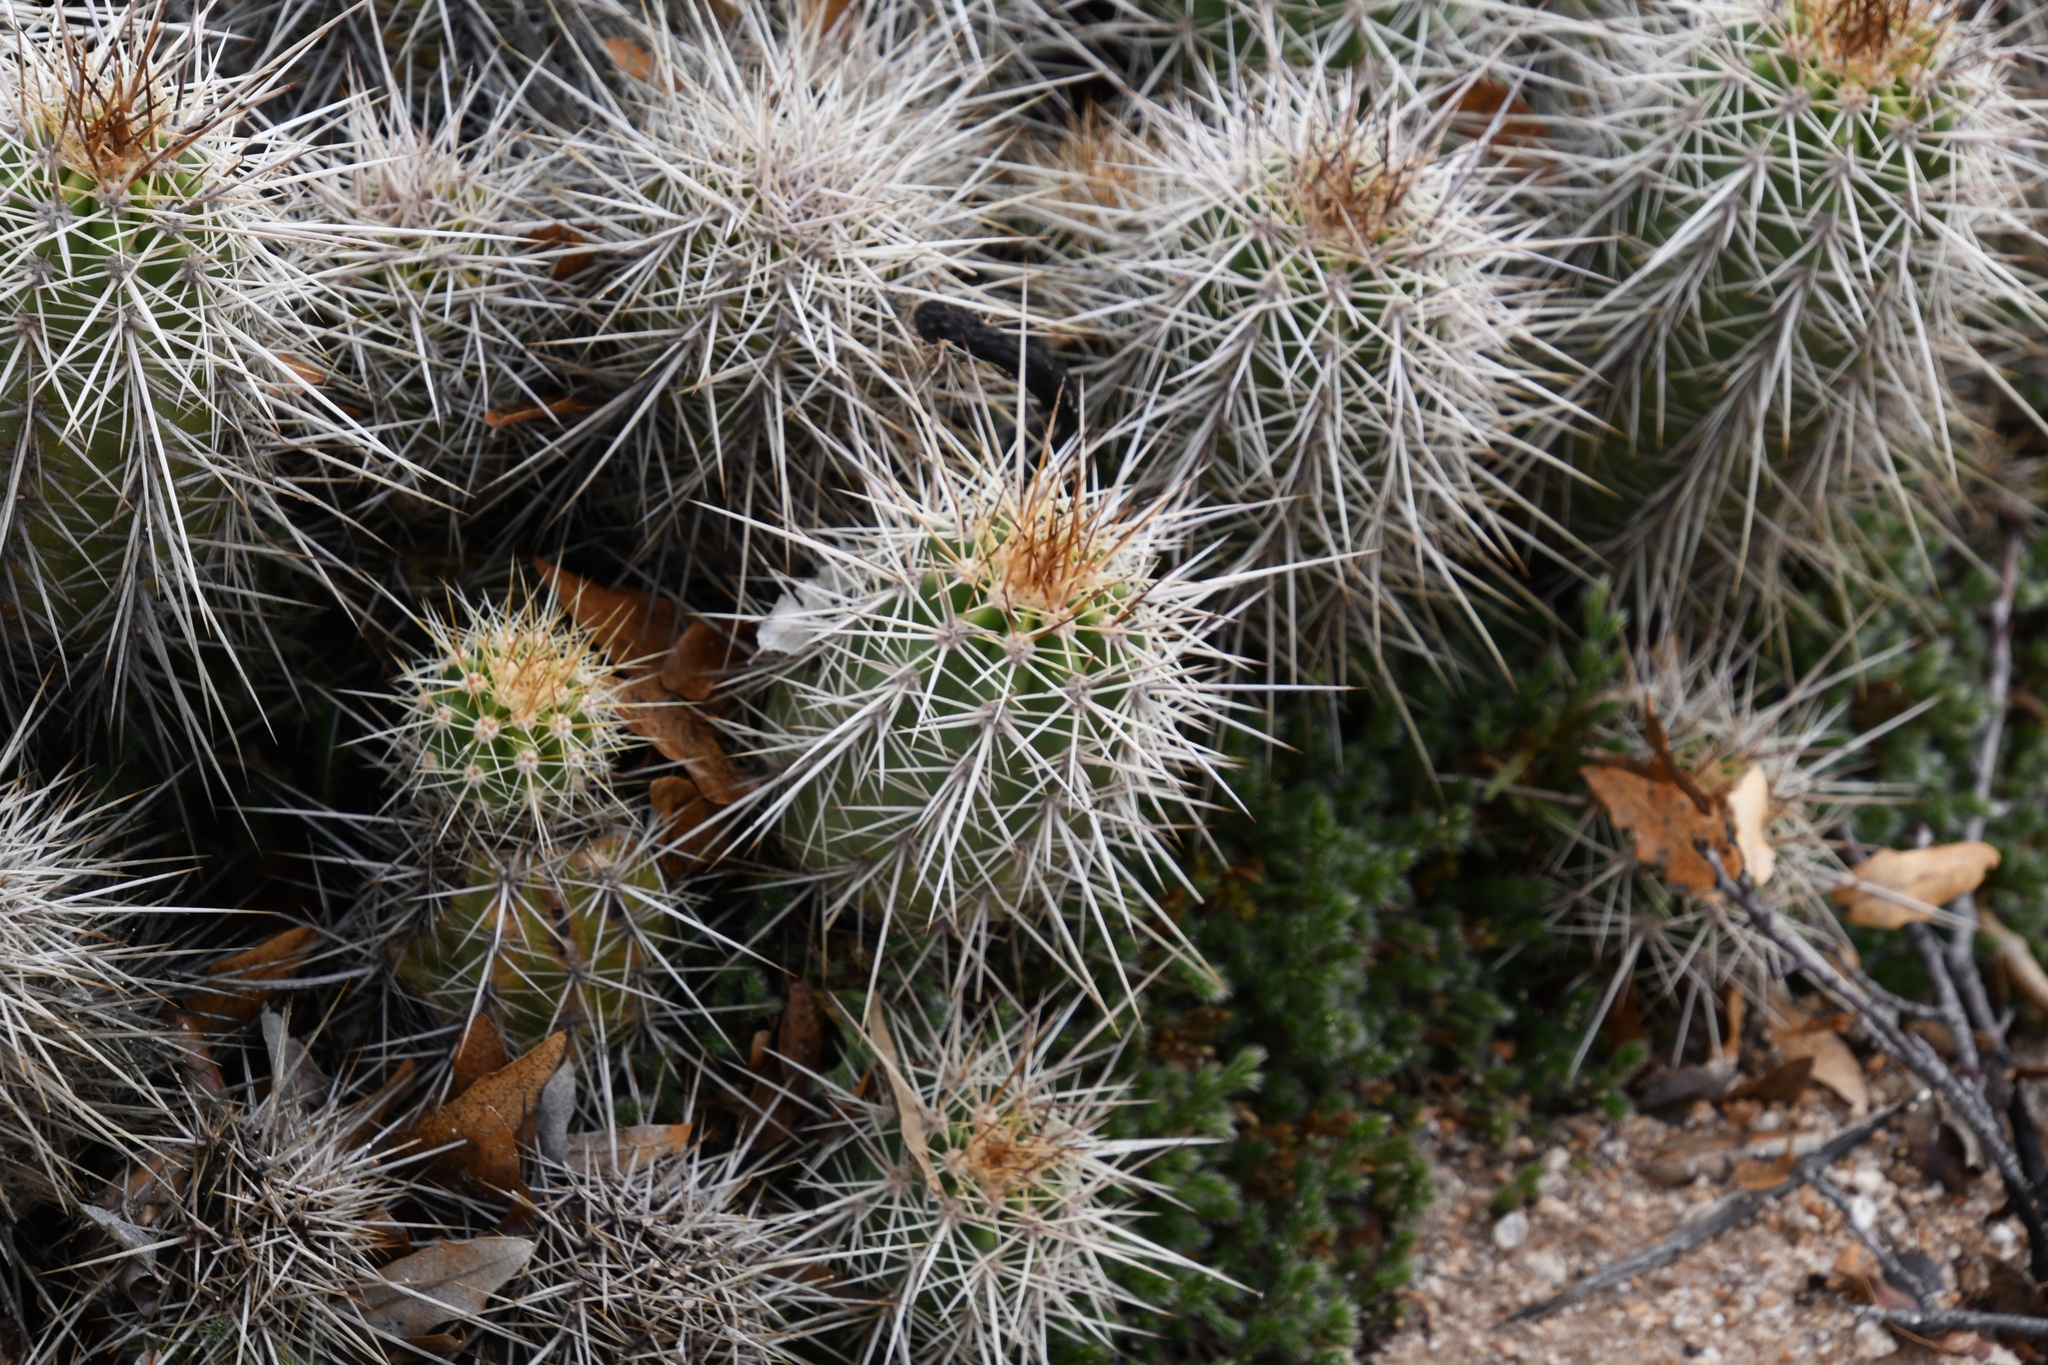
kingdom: Plantae
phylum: Tracheophyta
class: Magnoliopsida
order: Caryophyllales
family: Cactaceae
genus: Echinocereus
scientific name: Echinocereus coccineus
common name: Scarlet hedgehog cactus
